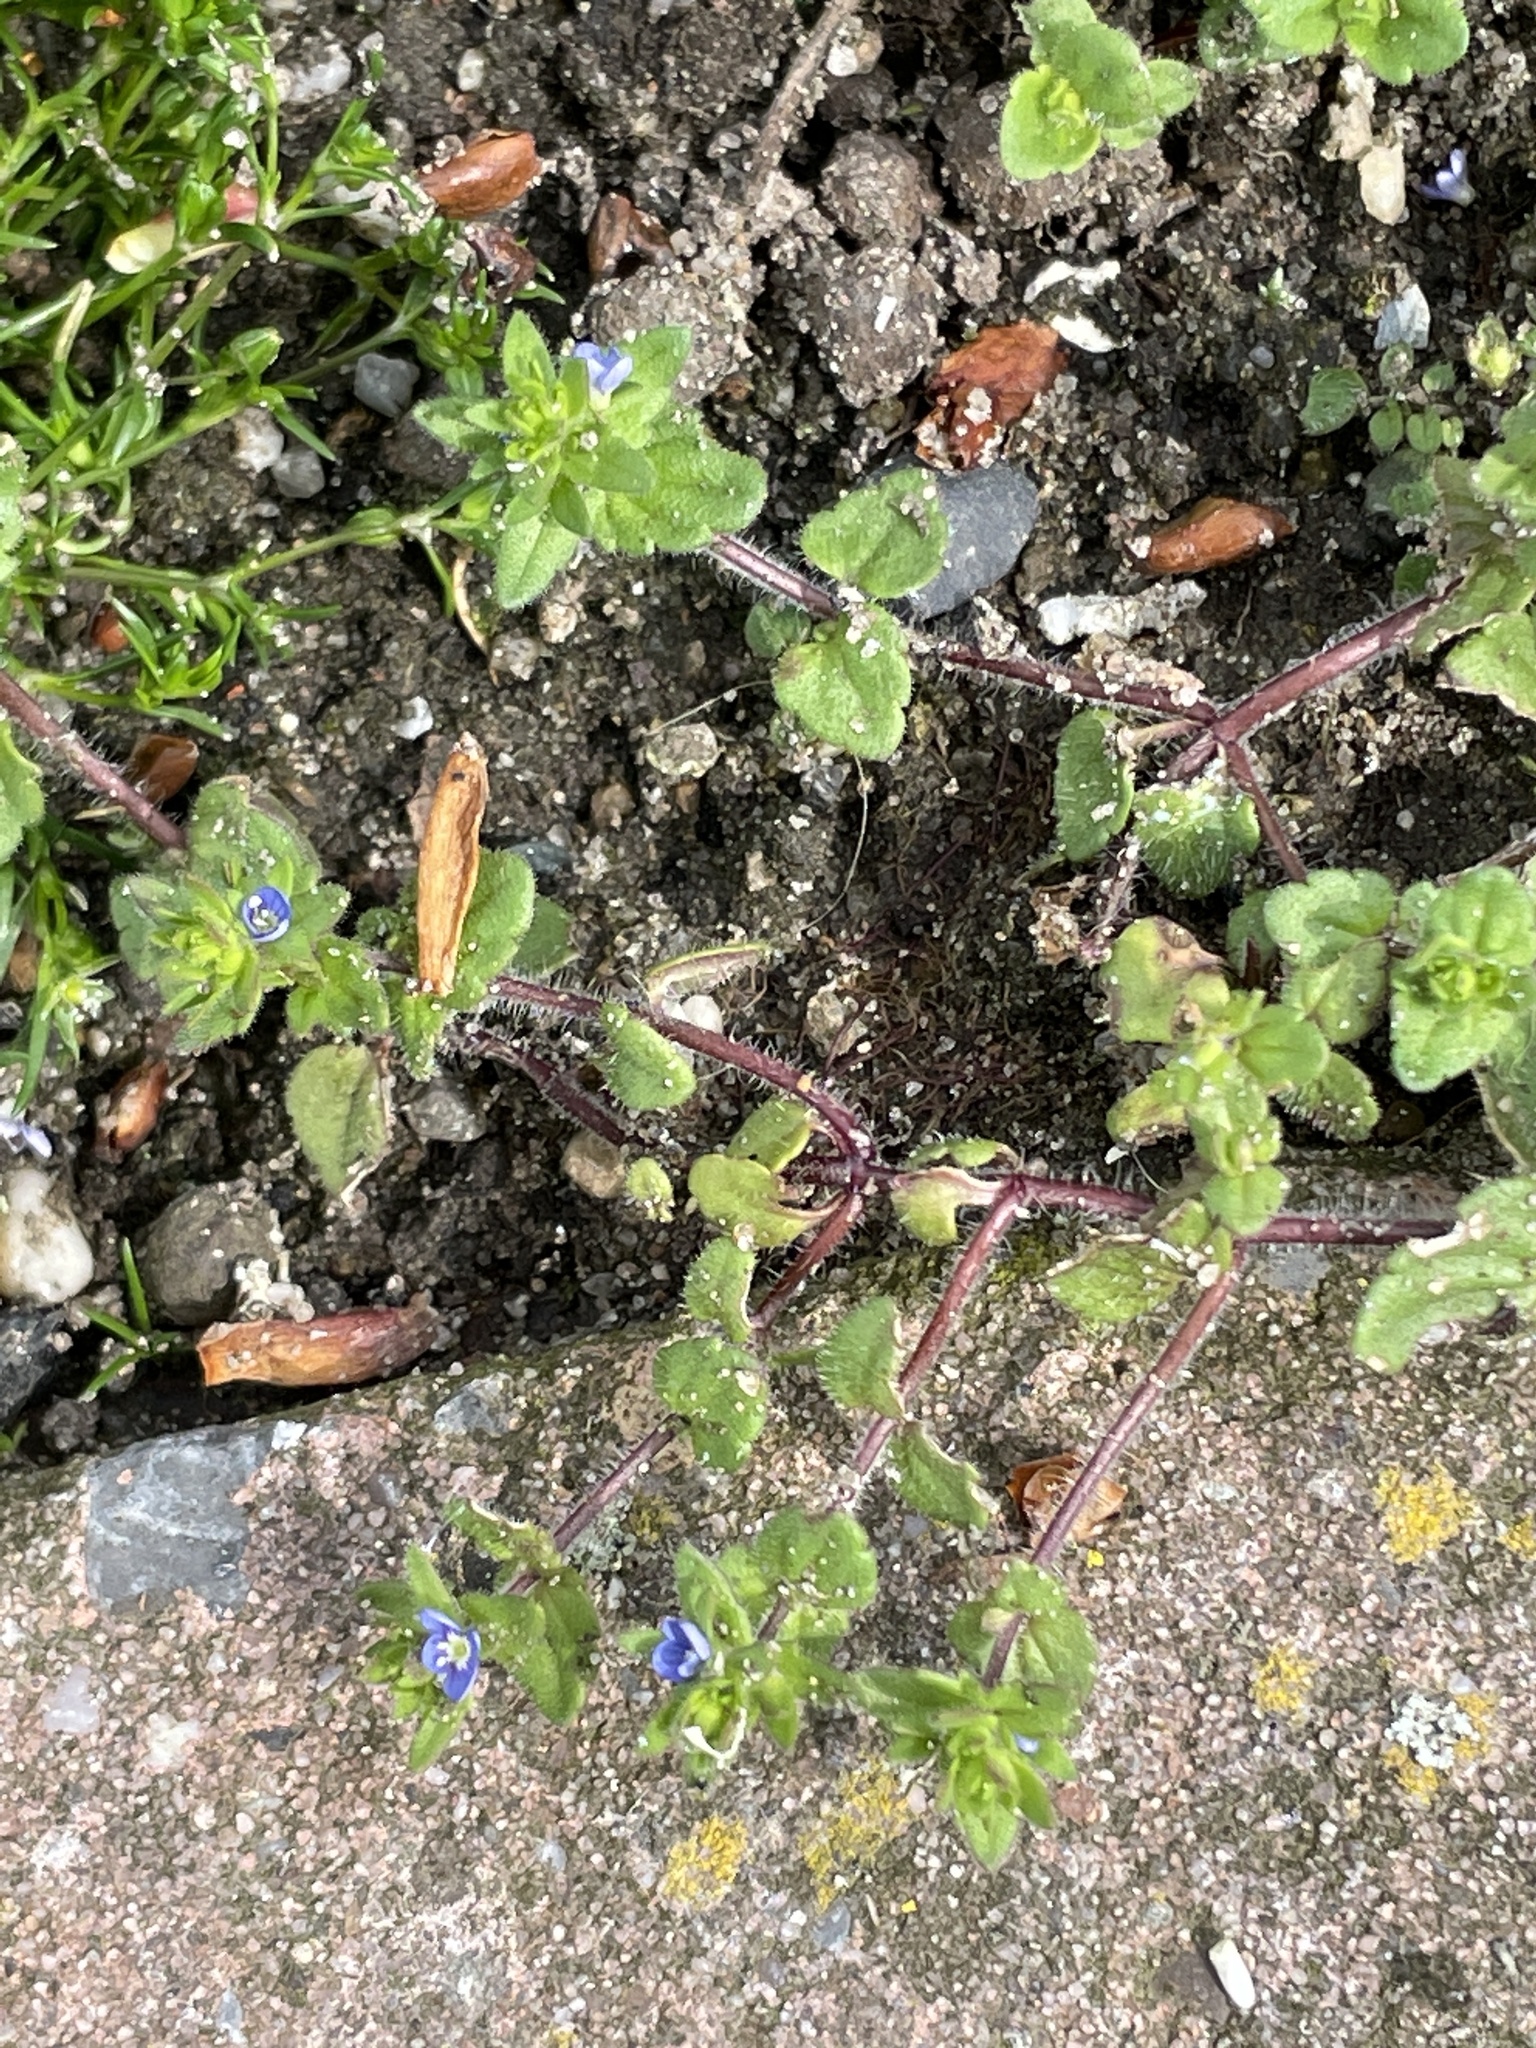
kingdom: Plantae
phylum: Tracheophyta
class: Magnoliopsida
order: Lamiales
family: Plantaginaceae
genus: Veronica
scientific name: Veronica arvensis
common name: Corn speedwell
